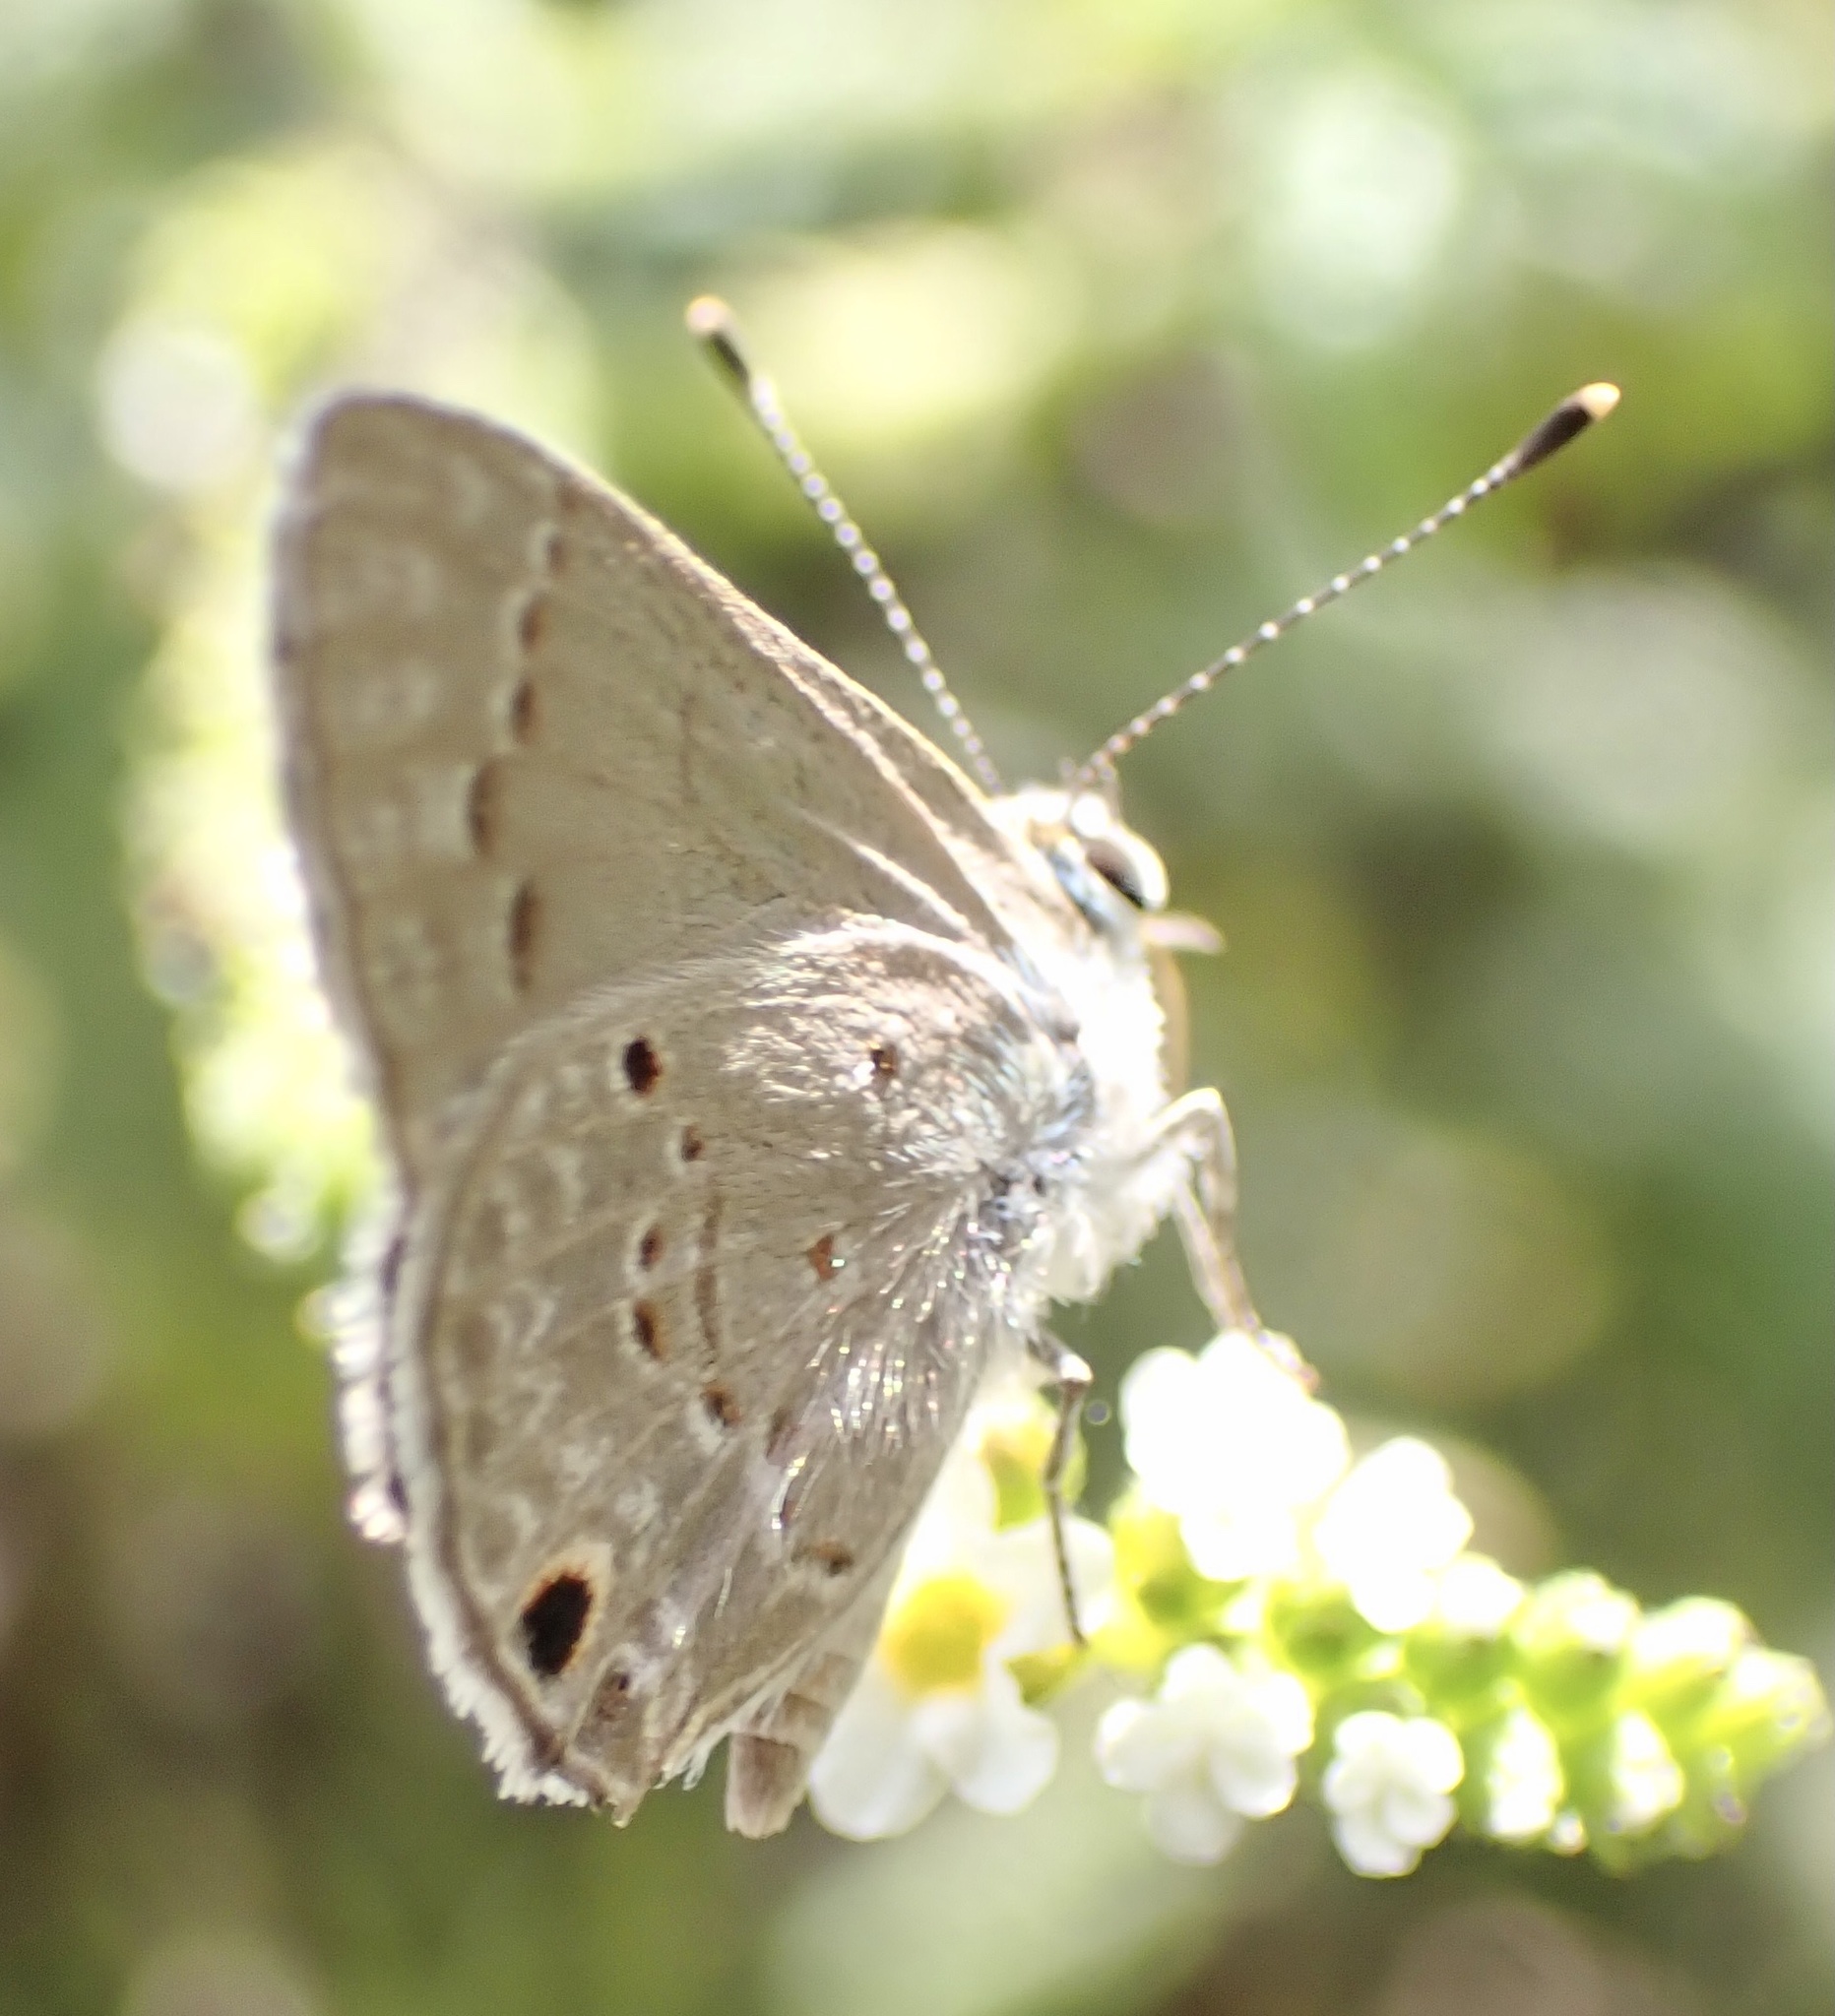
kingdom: Animalia
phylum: Arthropoda
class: Insecta
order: Lepidoptera
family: Lycaenidae
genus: Strymon
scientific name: Strymon bubastus
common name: Bubastes hairstreak
